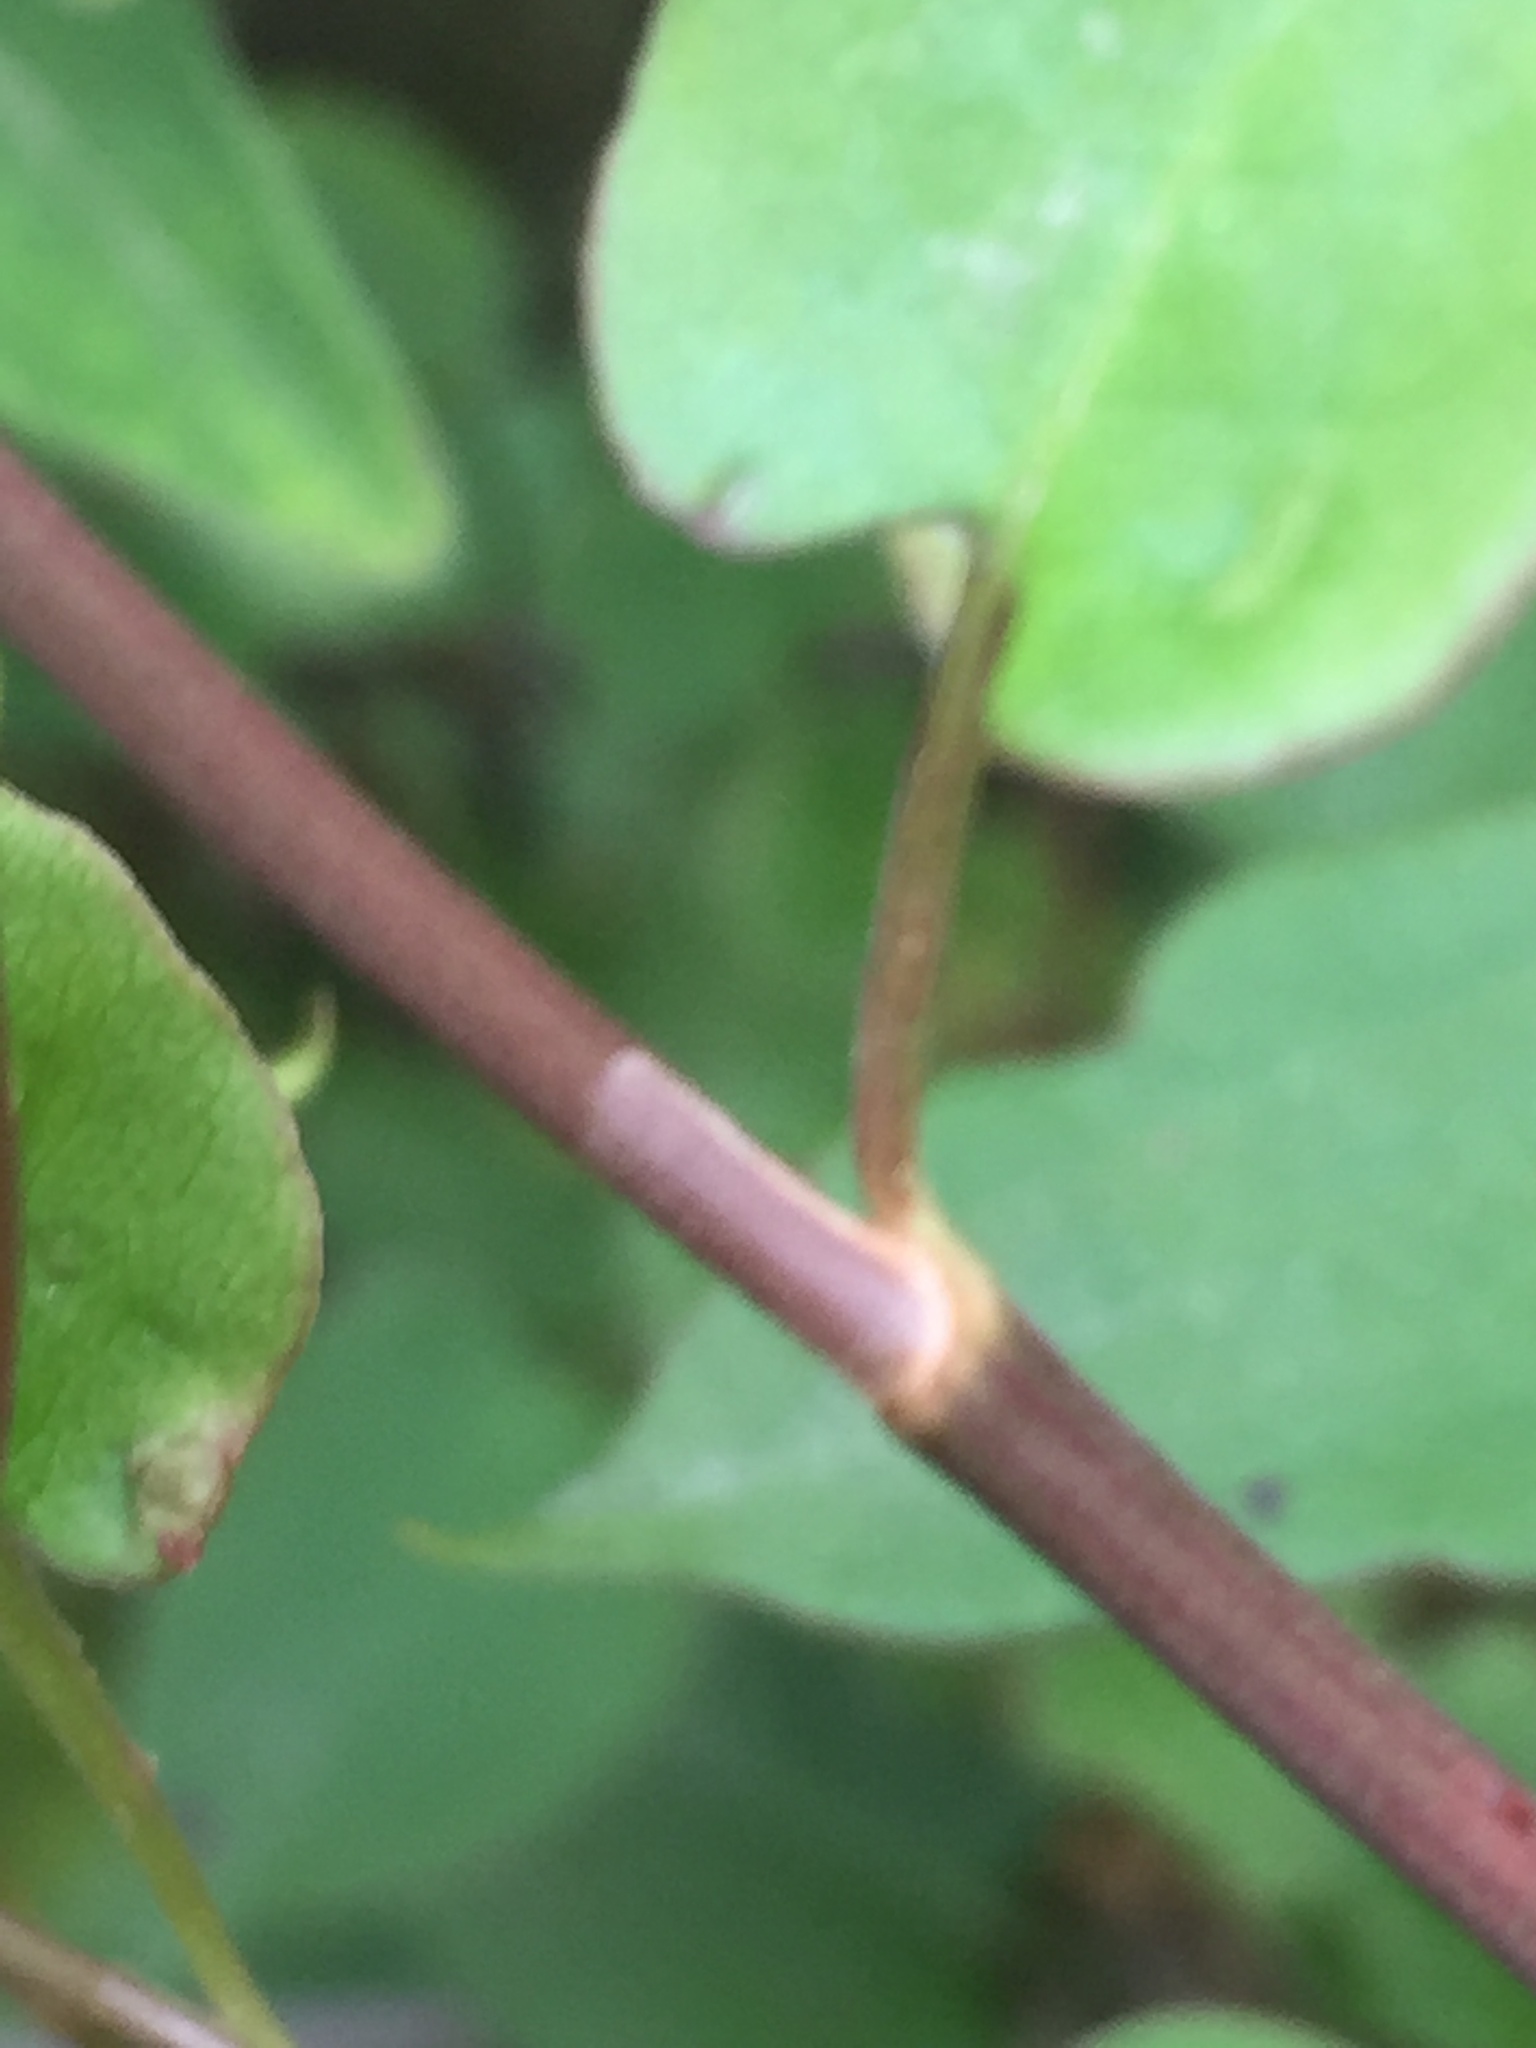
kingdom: Plantae
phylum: Tracheophyta
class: Magnoliopsida
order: Caryophyllales
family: Polygonaceae
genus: Muehlenbeckia
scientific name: Muehlenbeckia australis
